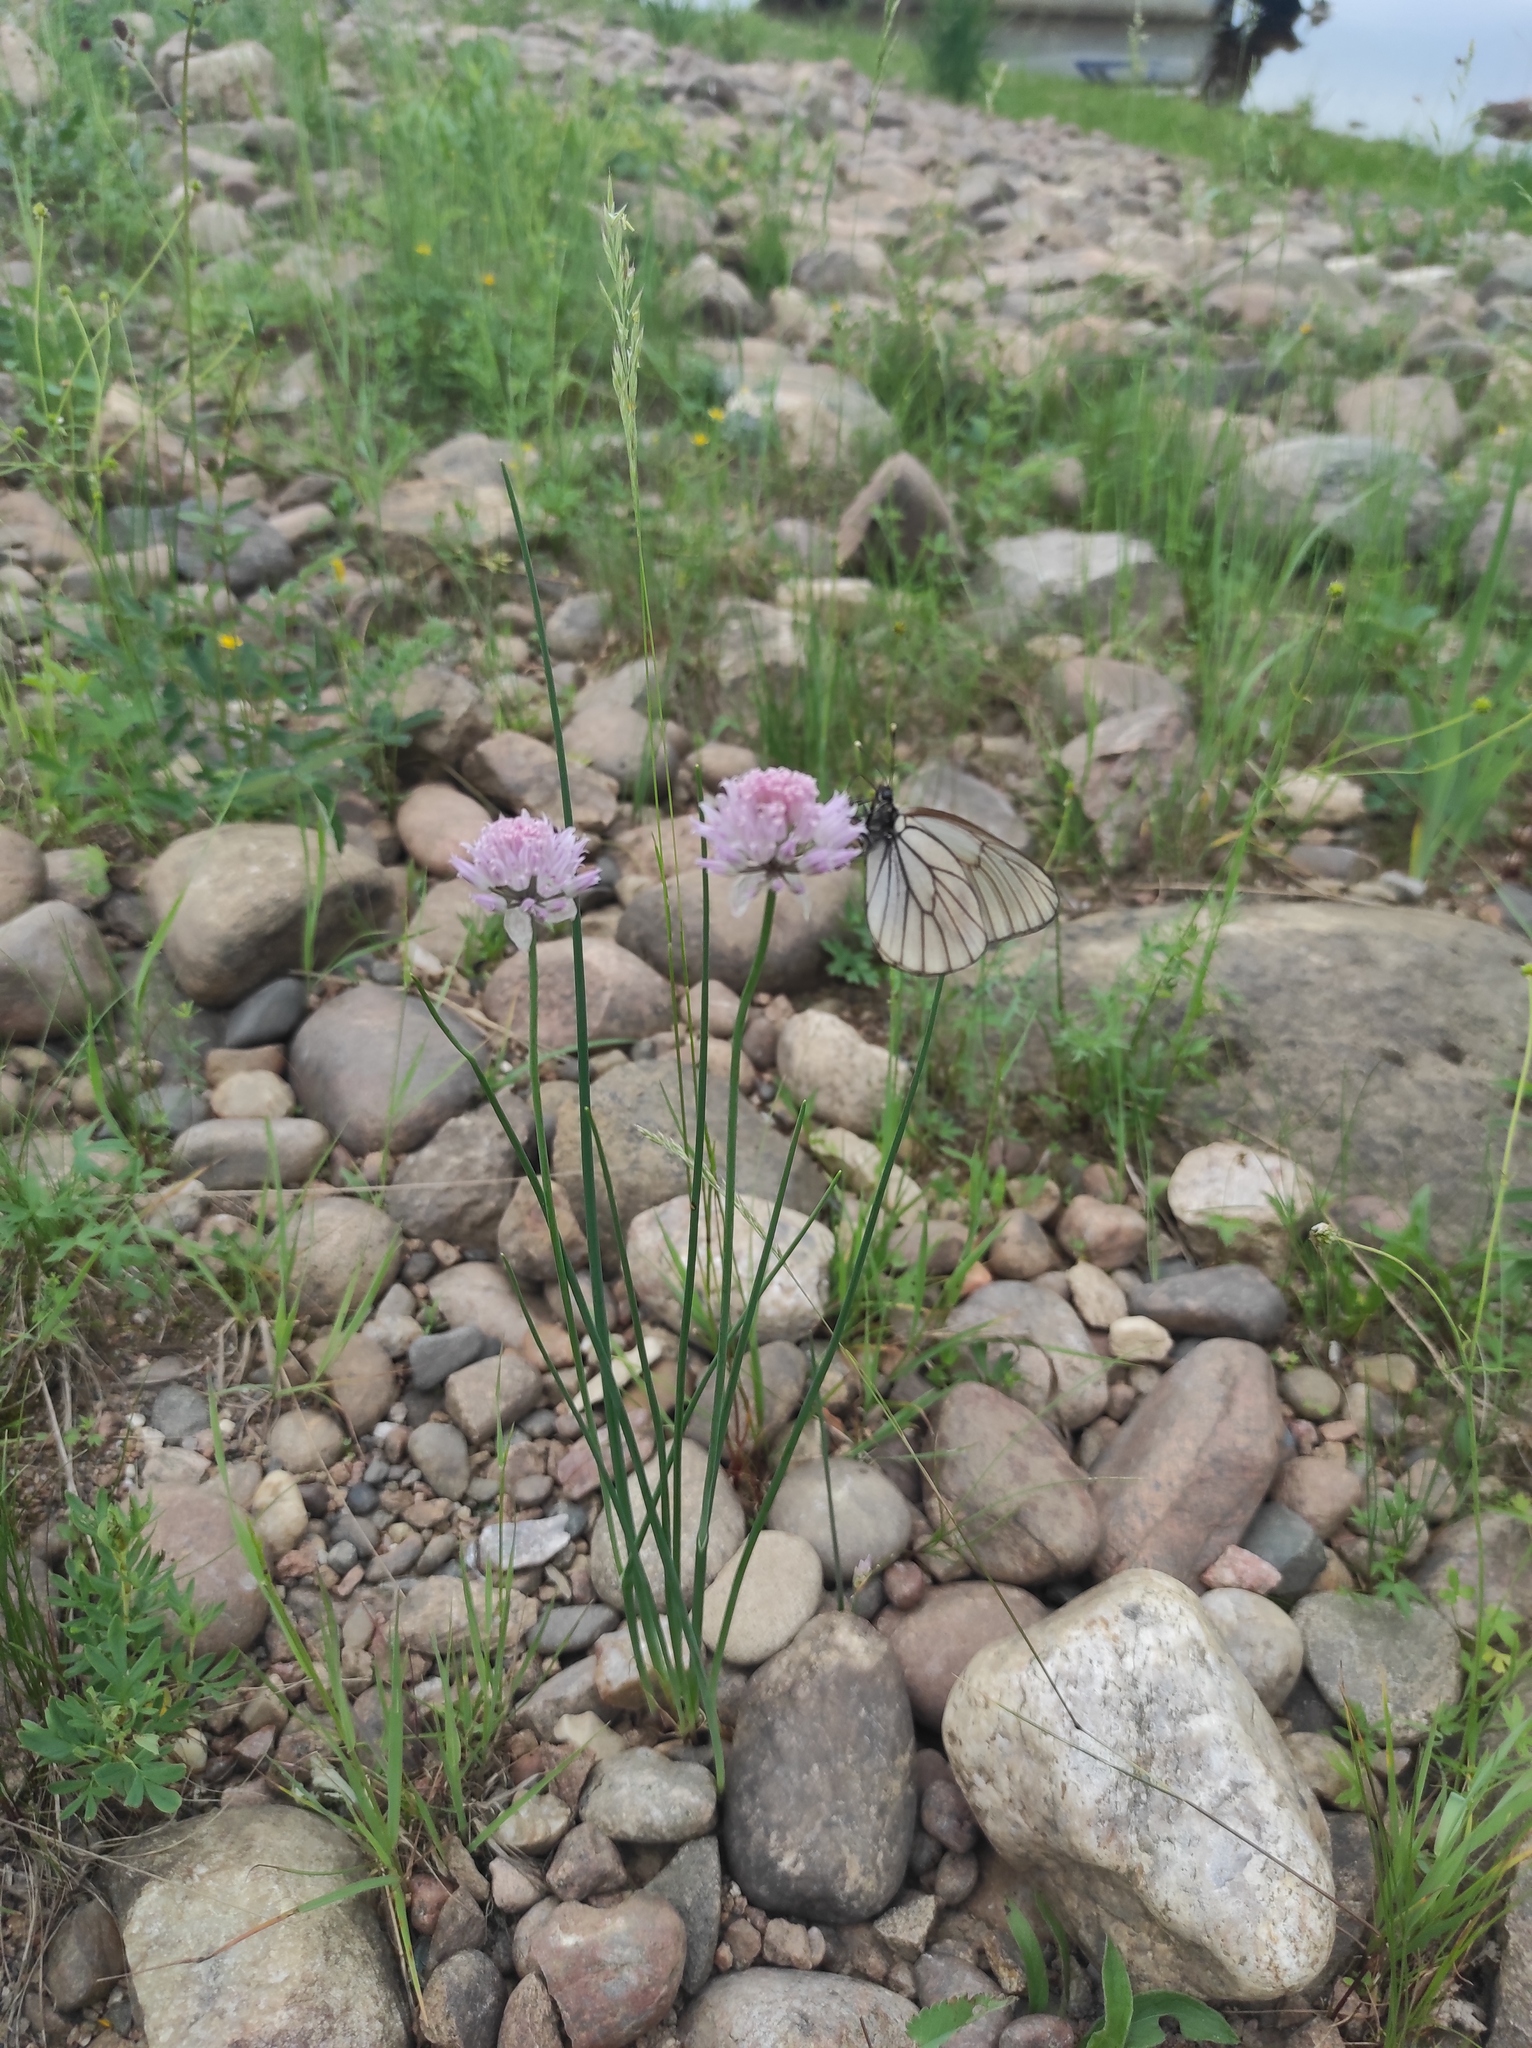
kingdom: Animalia
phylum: Arthropoda
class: Insecta
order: Lepidoptera
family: Pieridae
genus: Aporia
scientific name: Aporia crataegi
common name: Black-veined white
